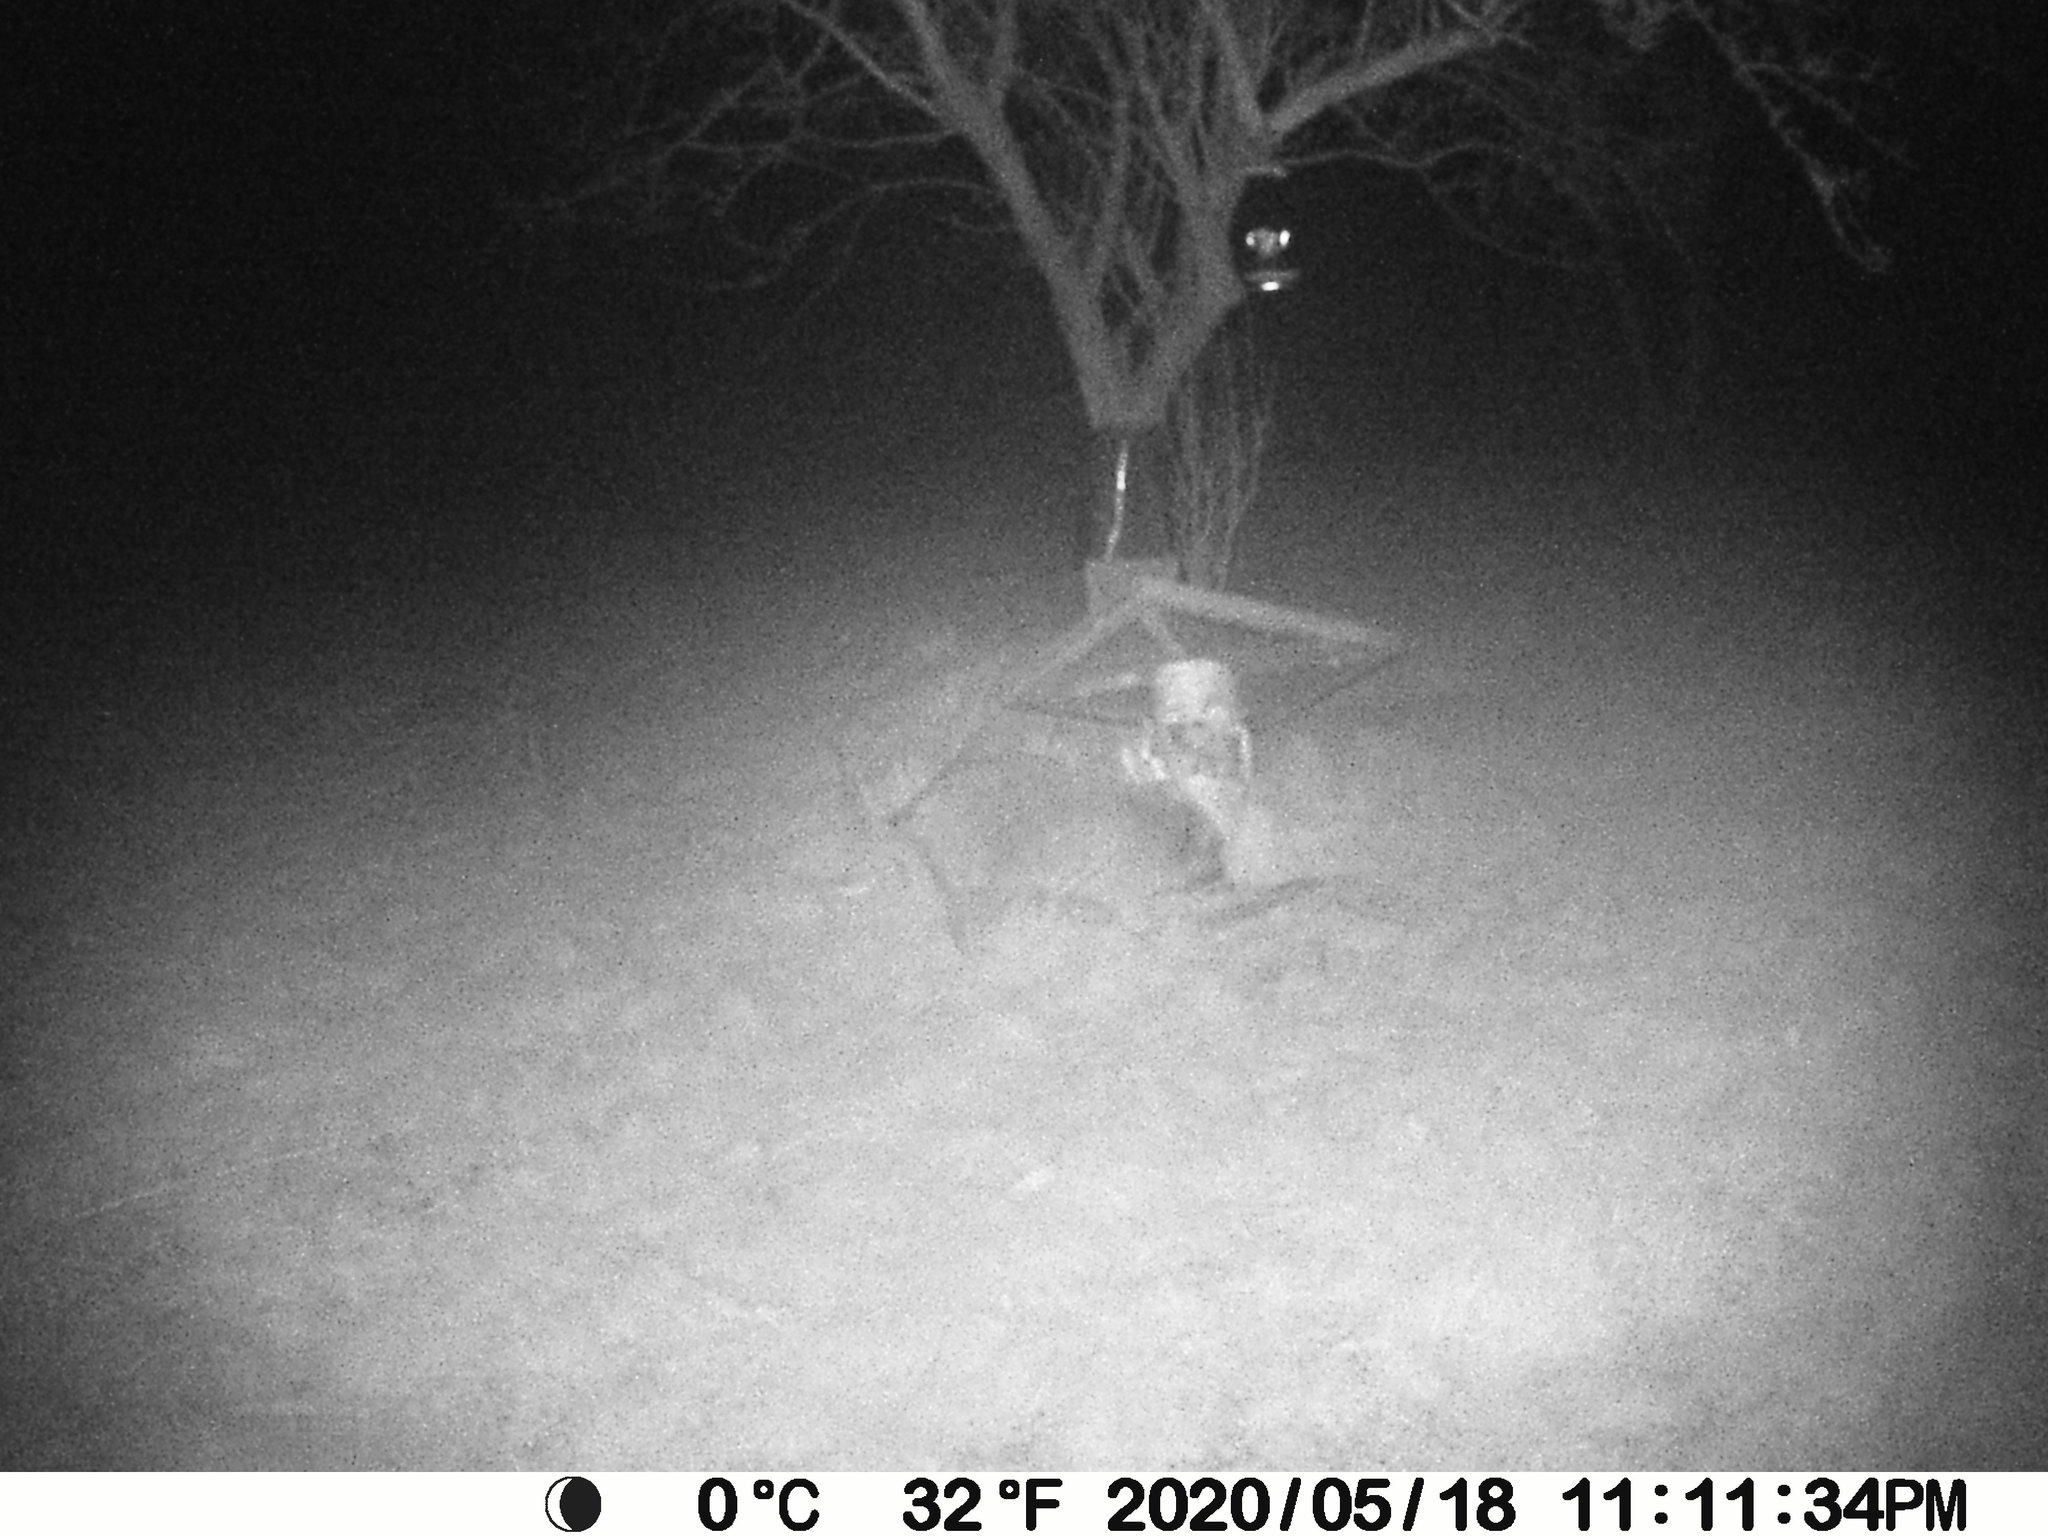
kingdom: Animalia
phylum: Chordata
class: Mammalia
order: Carnivora
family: Procyonidae
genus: Procyon
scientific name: Procyon lotor
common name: Raccoon
